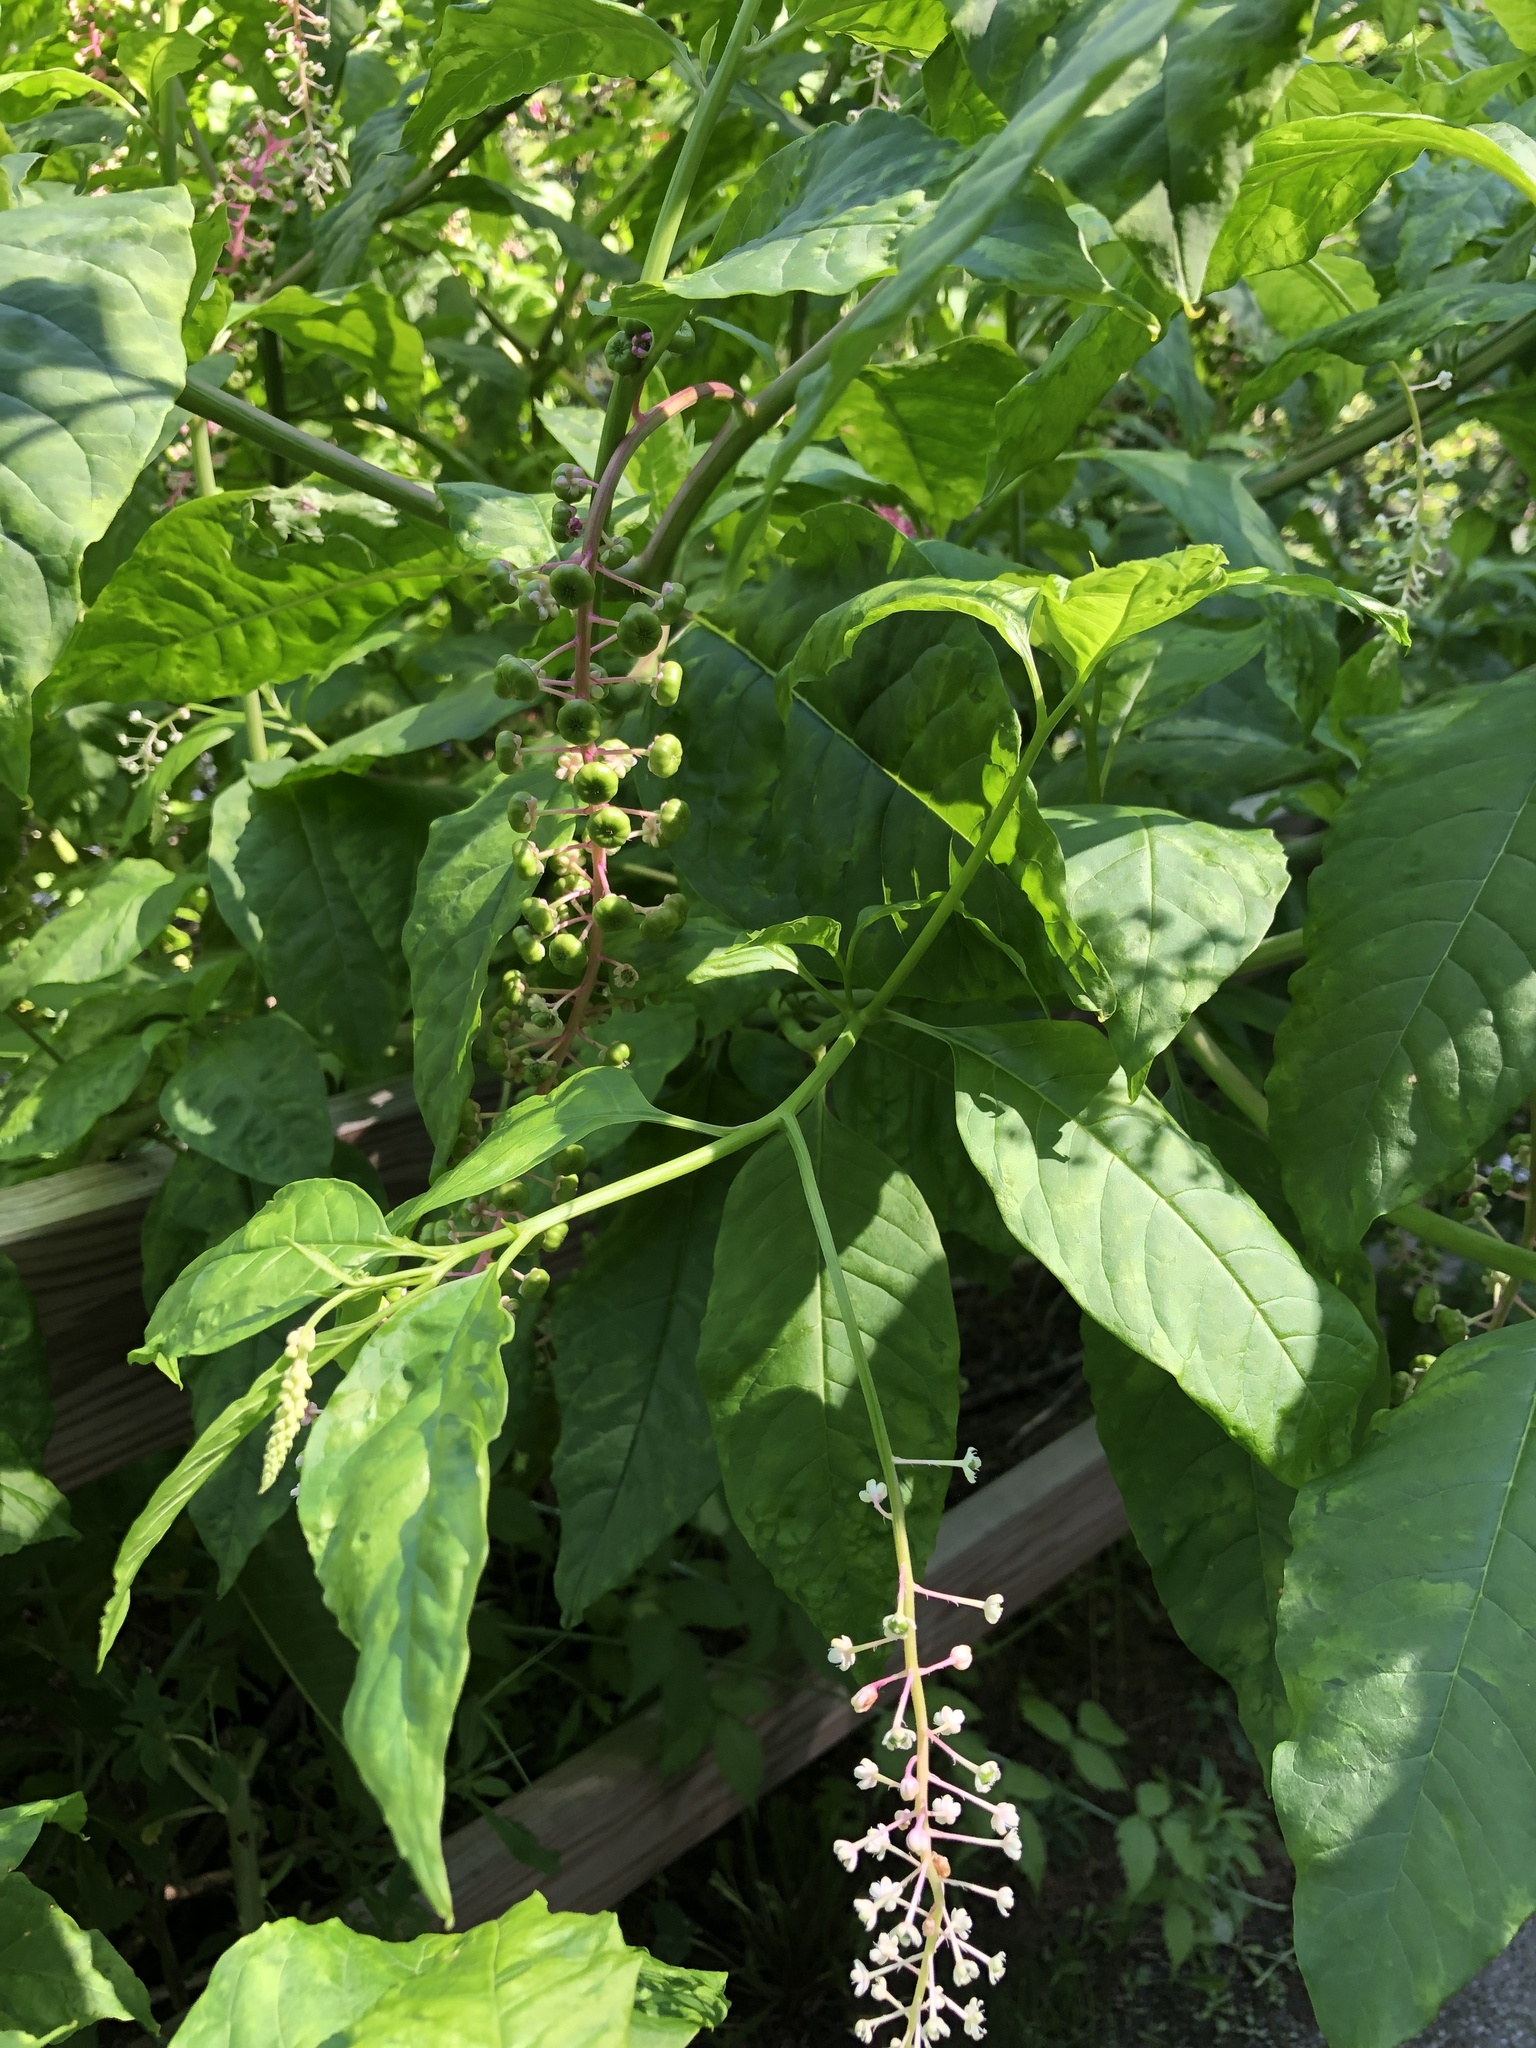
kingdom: Viruses
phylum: Pisuviricota
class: Stelpaviricetes
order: Patatavirales
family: Potyviridae
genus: Potyvirus
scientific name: Potyvirus Pokeweed mosaic virus
